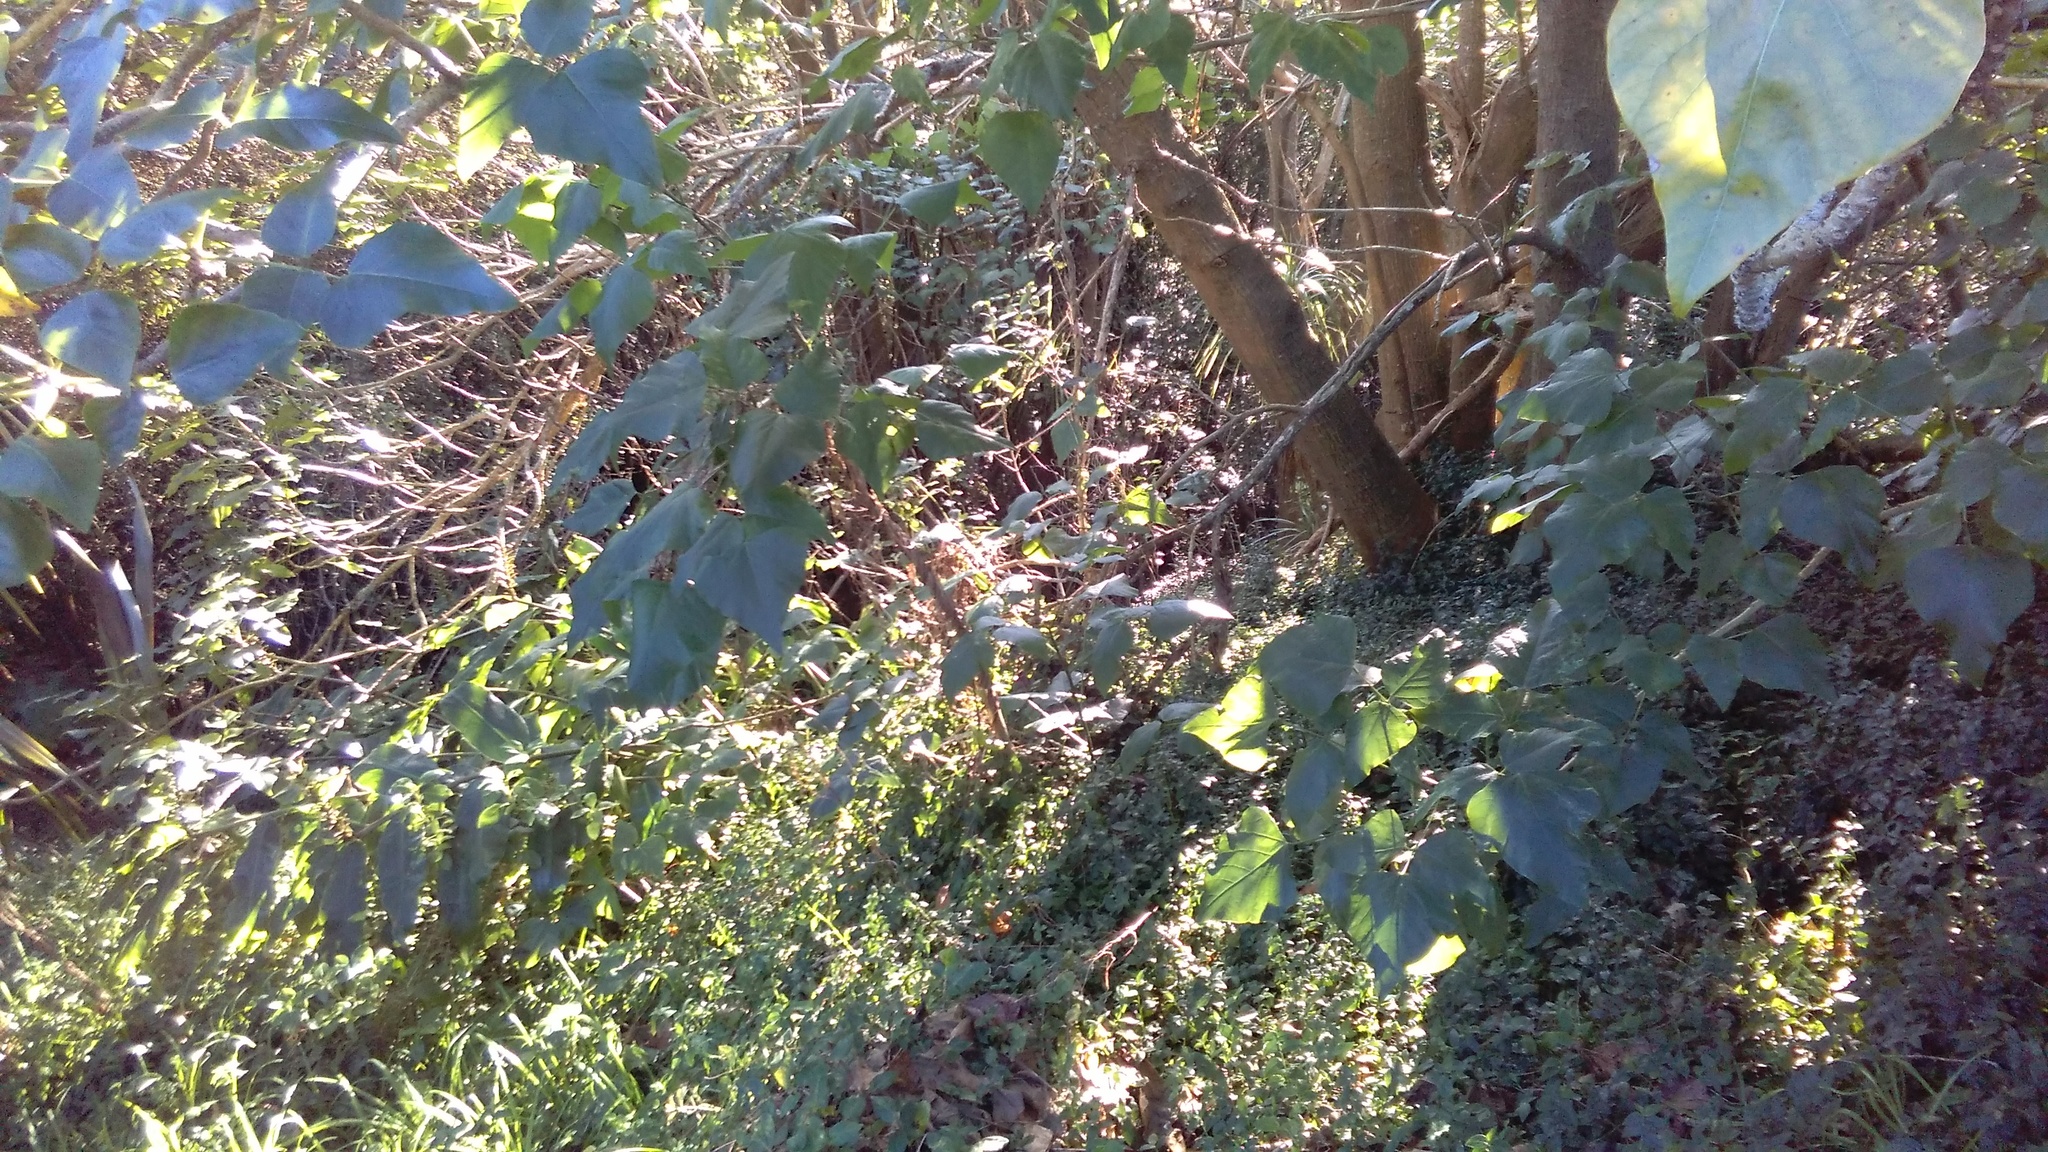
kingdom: Plantae
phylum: Tracheophyta
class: Magnoliopsida
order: Dipsacales
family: Caprifoliaceae
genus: Lonicera
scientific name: Lonicera japonica
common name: Japanese honeysuckle
